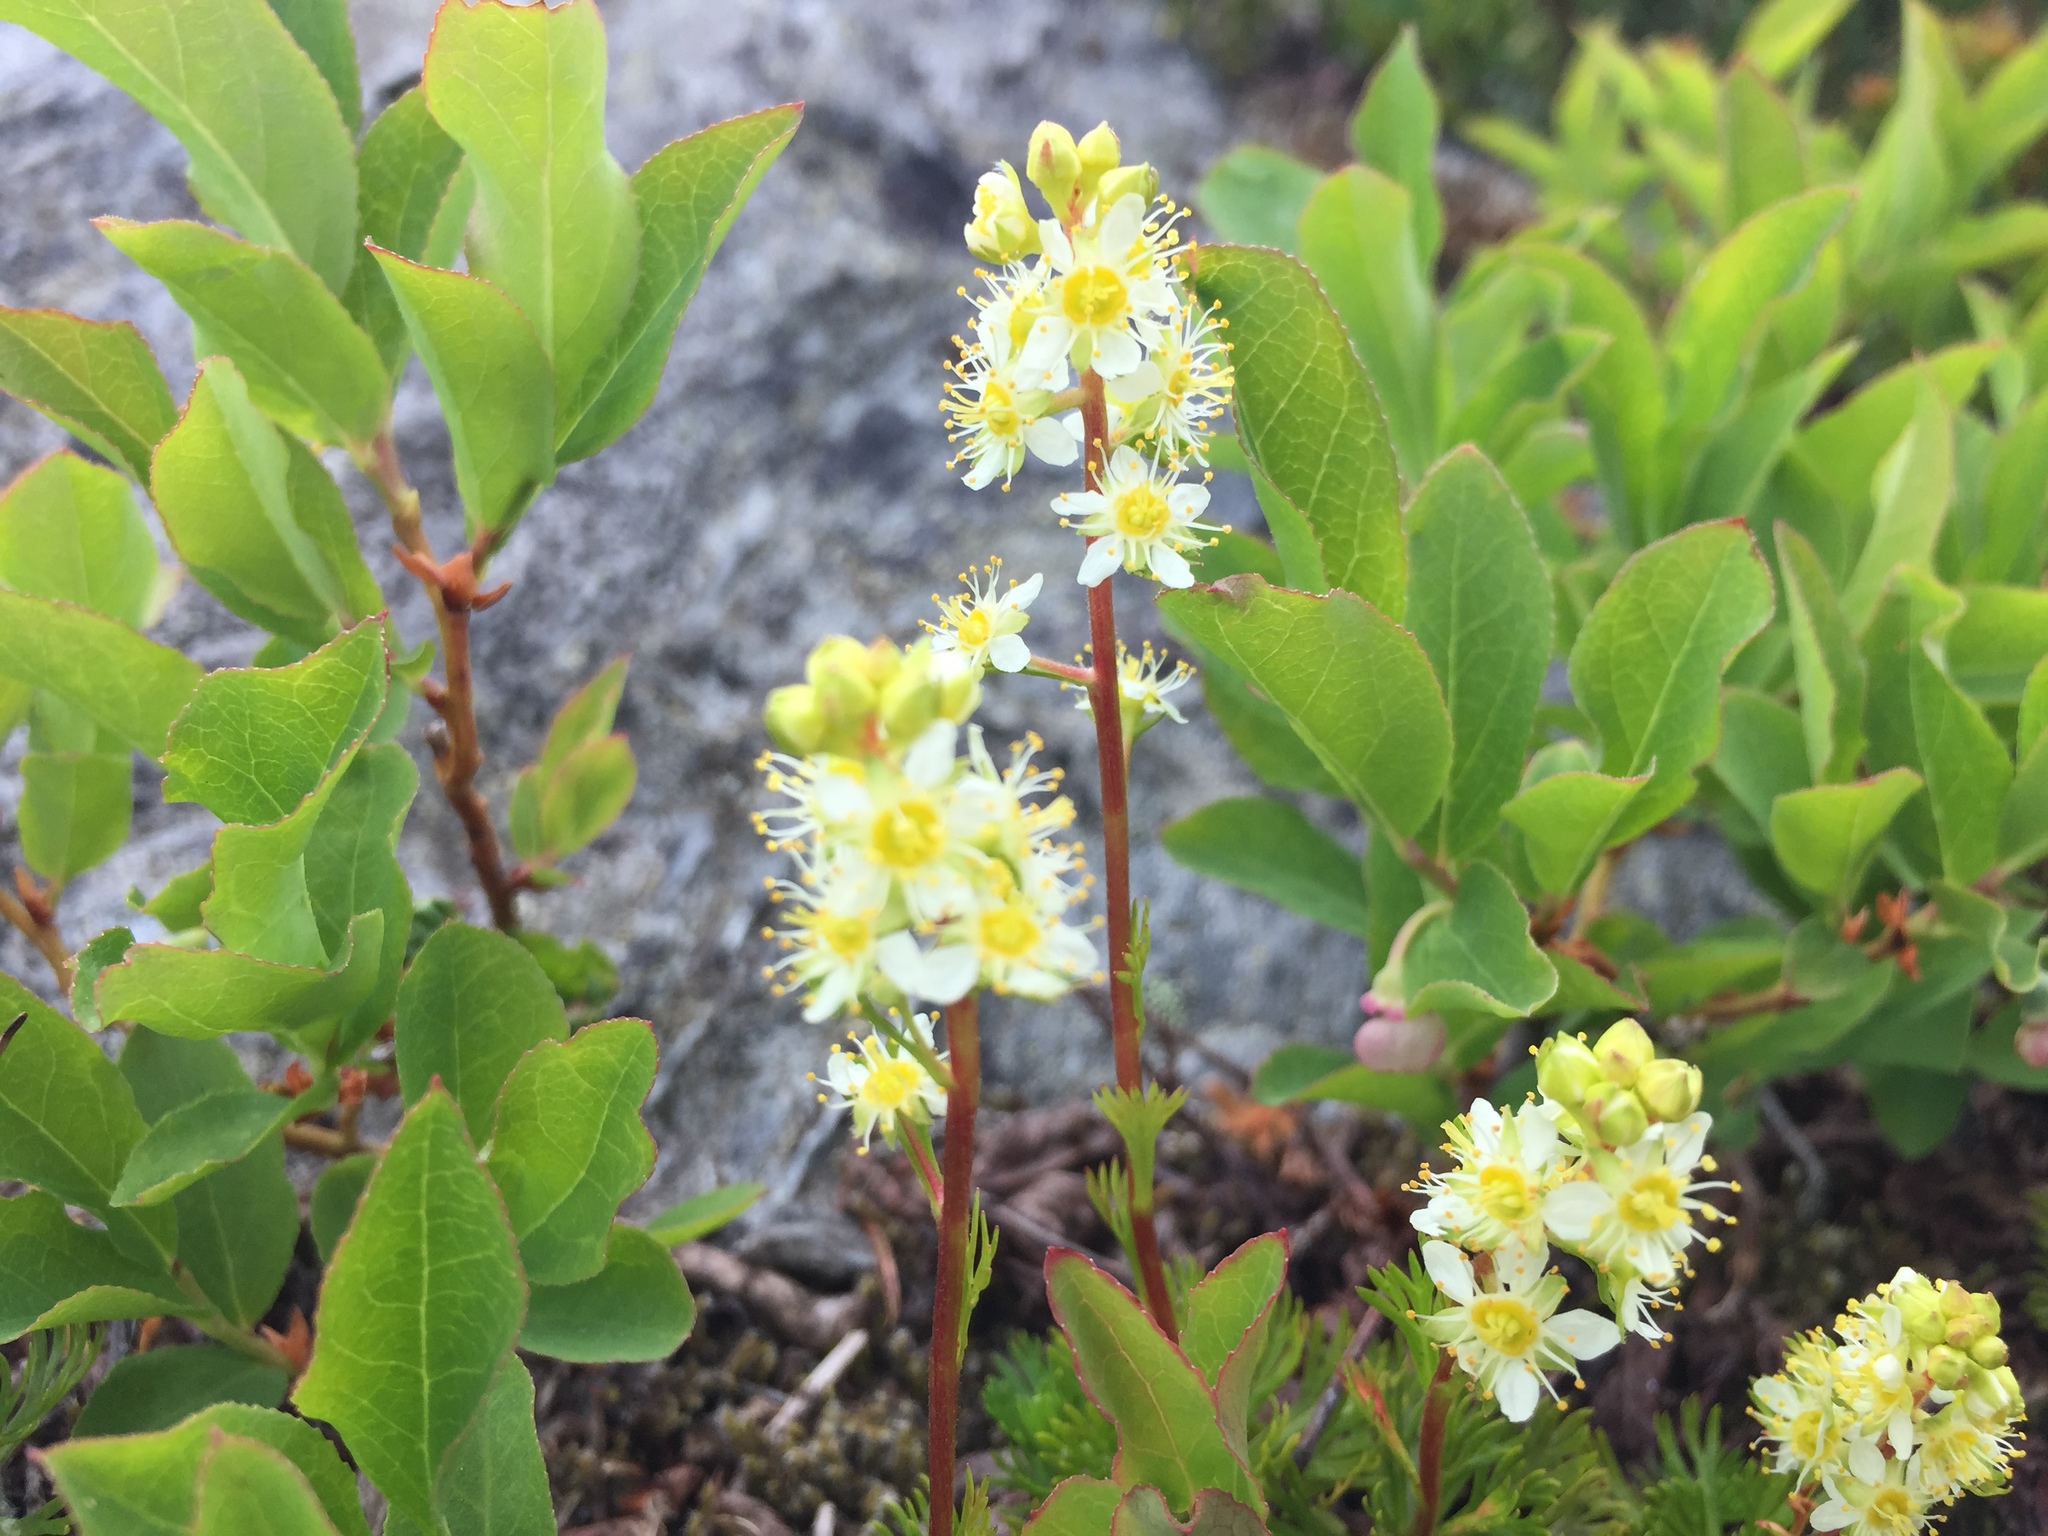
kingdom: Plantae
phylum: Tracheophyta
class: Magnoliopsida
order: Rosales
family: Rosaceae
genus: Luetkea
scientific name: Luetkea pectinata
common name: Partridgefoot
